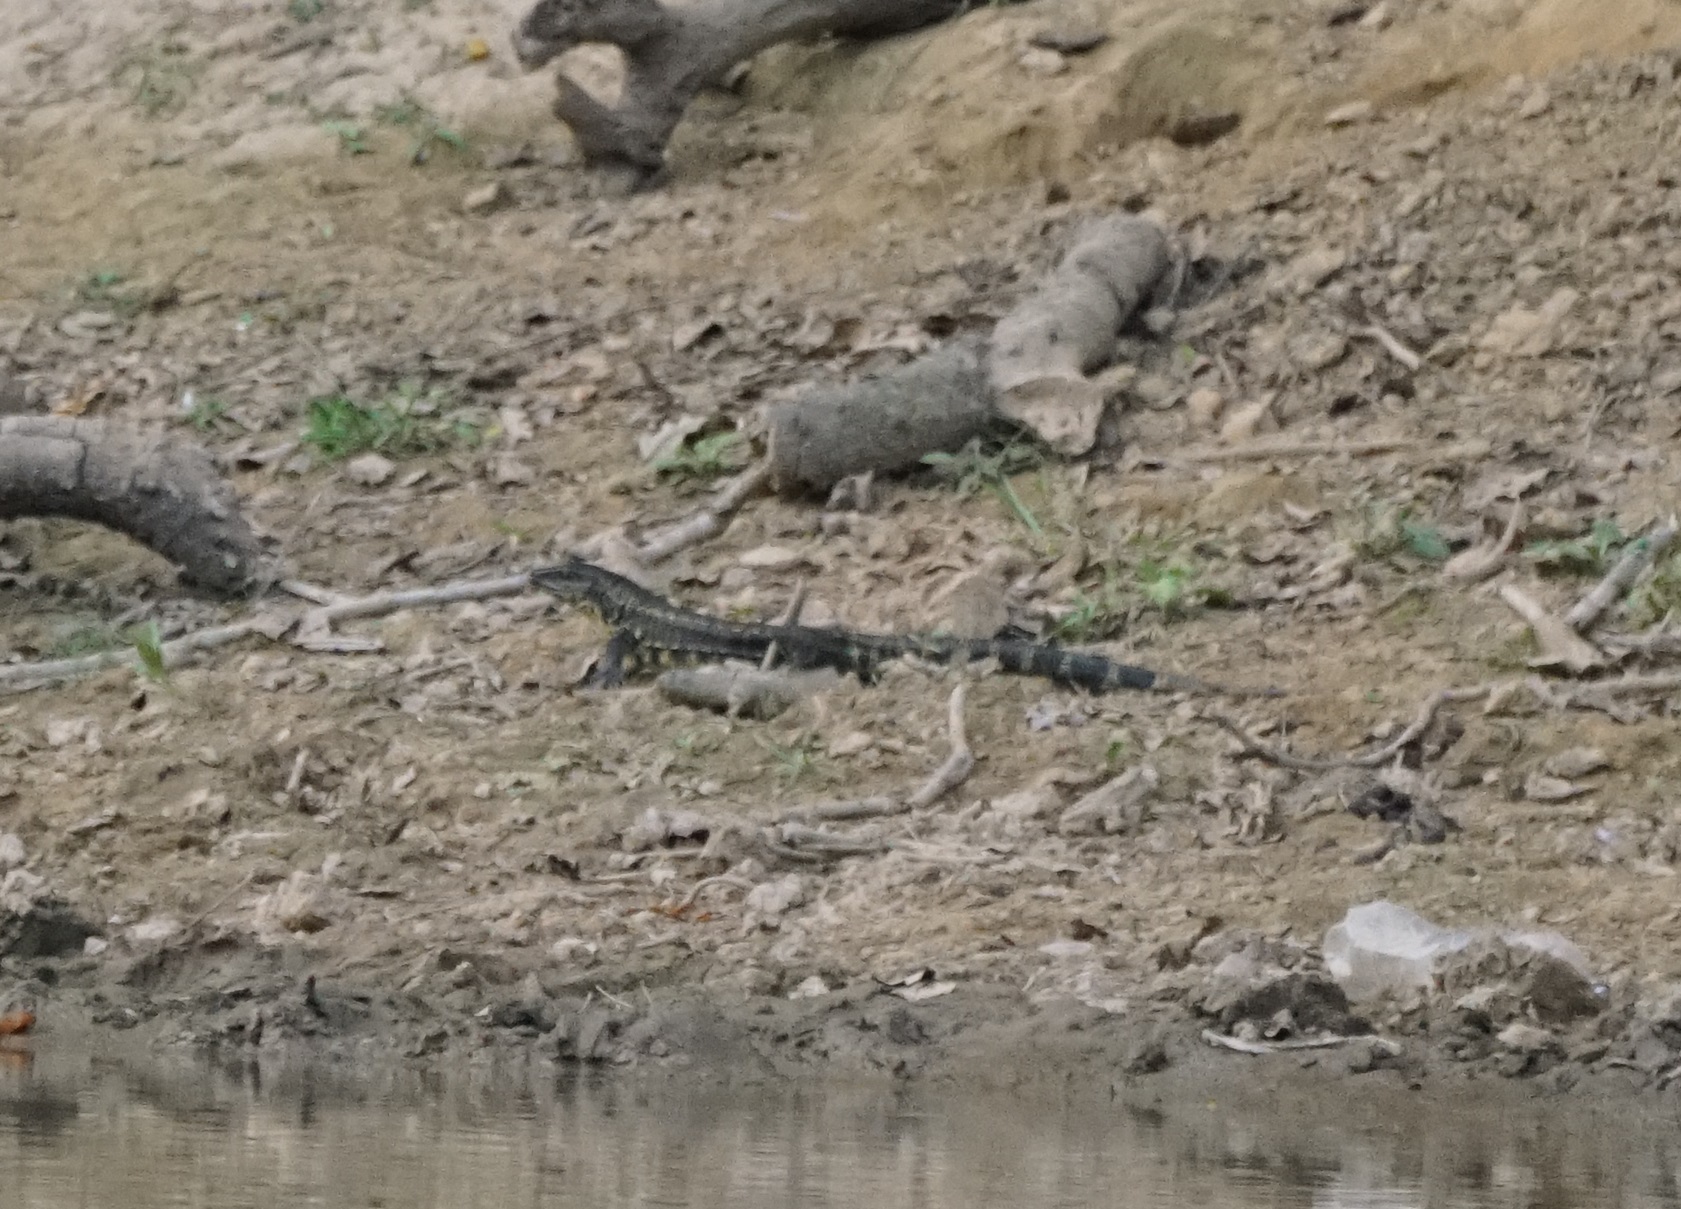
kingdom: Animalia
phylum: Chordata
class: Squamata
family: Teiidae
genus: Salvator
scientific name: Salvator merianae
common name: Argentine black and white tegu
